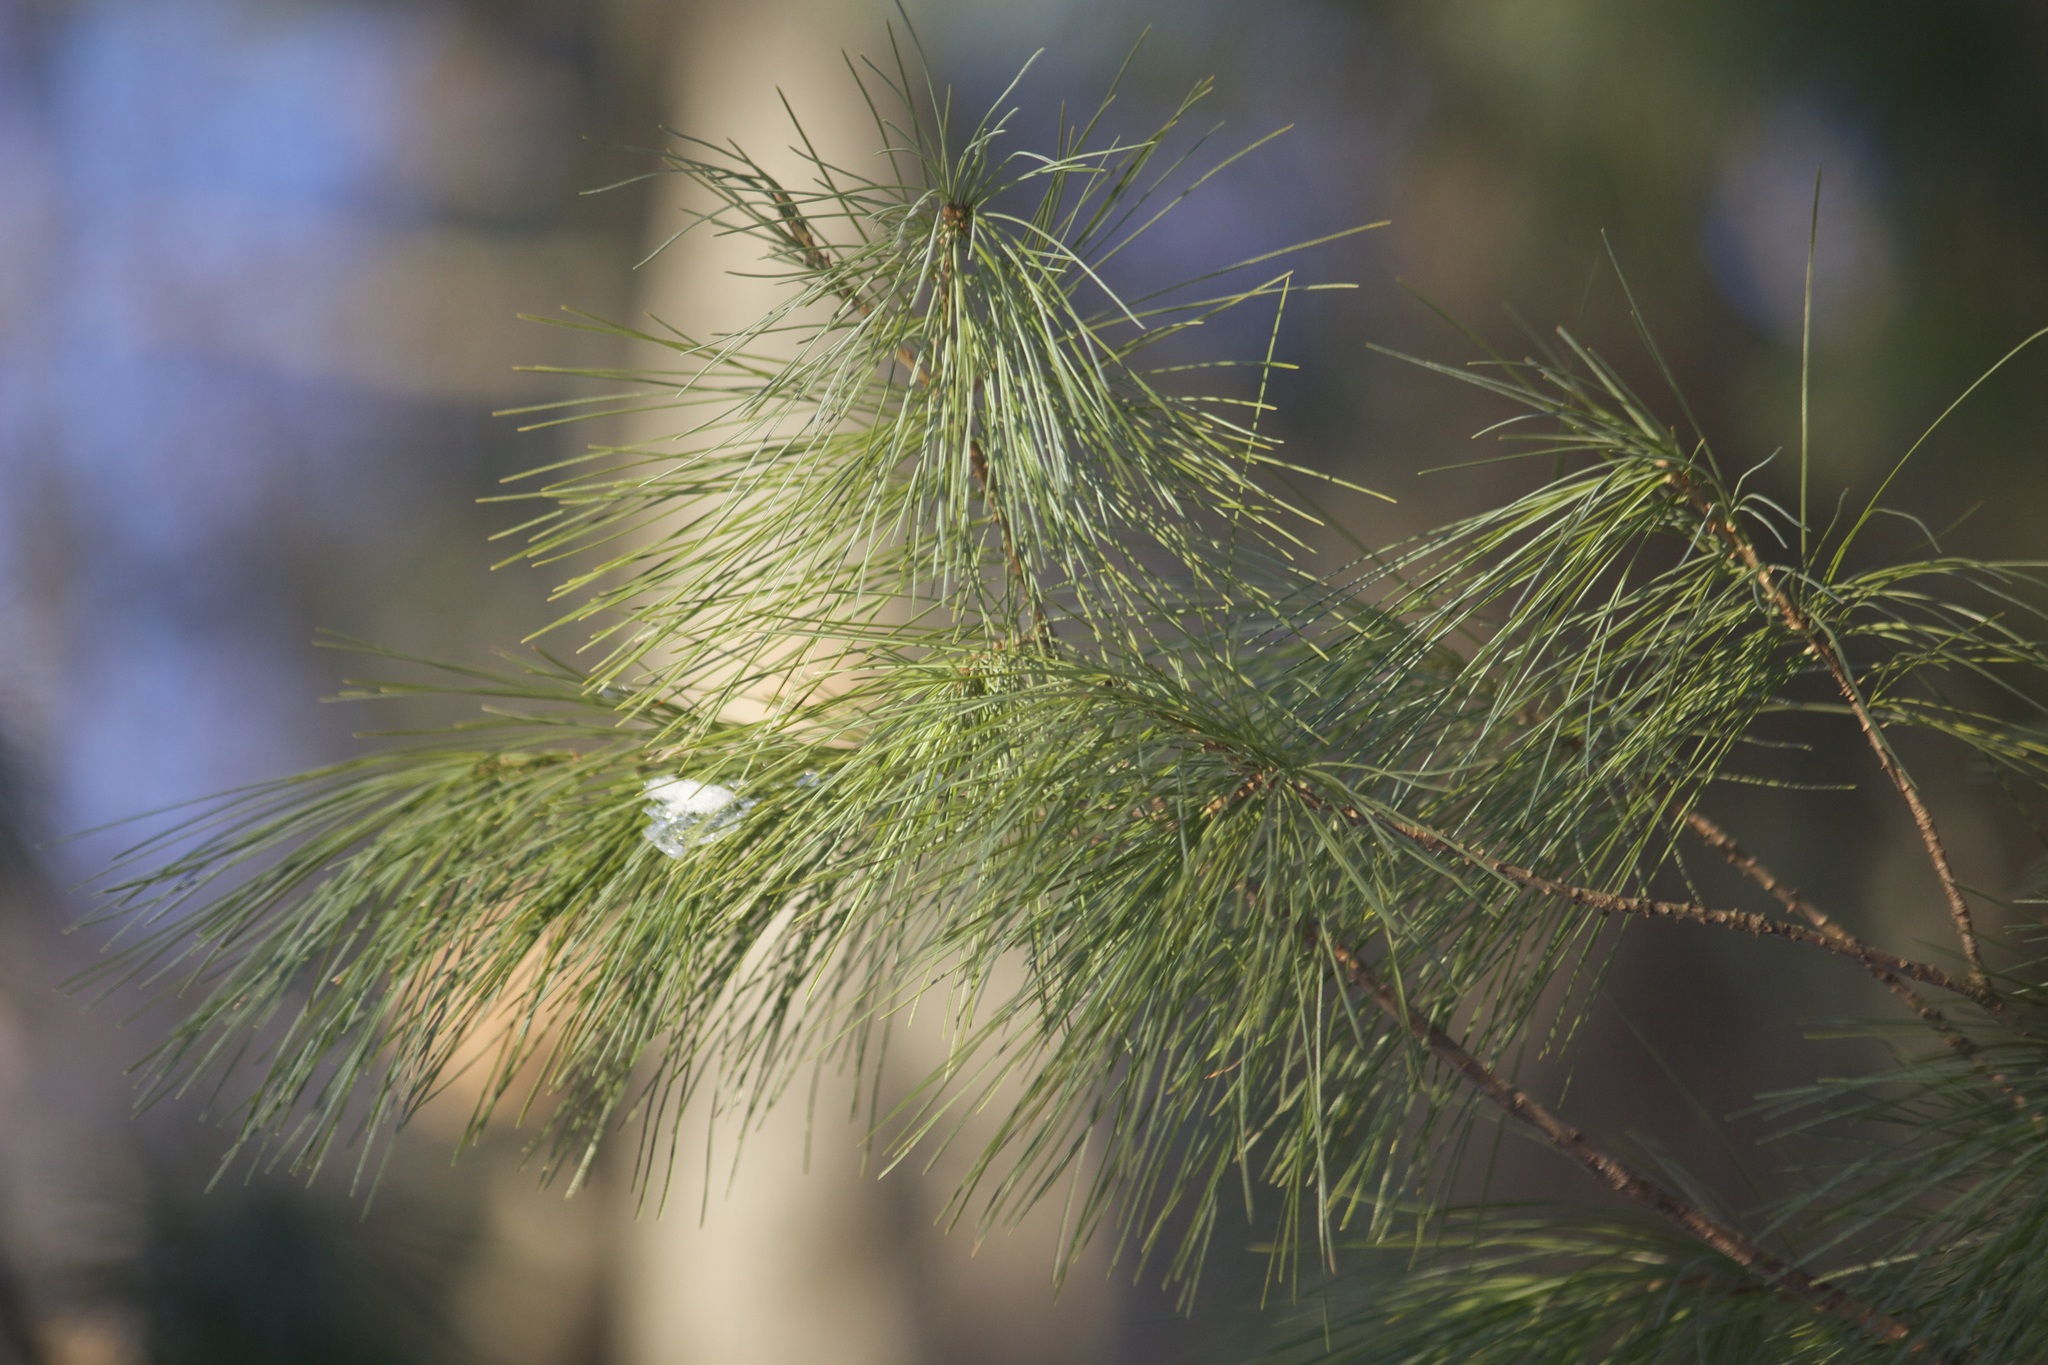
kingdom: Plantae
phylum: Tracheophyta
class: Pinopsida
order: Pinales
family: Pinaceae
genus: Pinus
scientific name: Pinus strobus
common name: Weymouth pine
